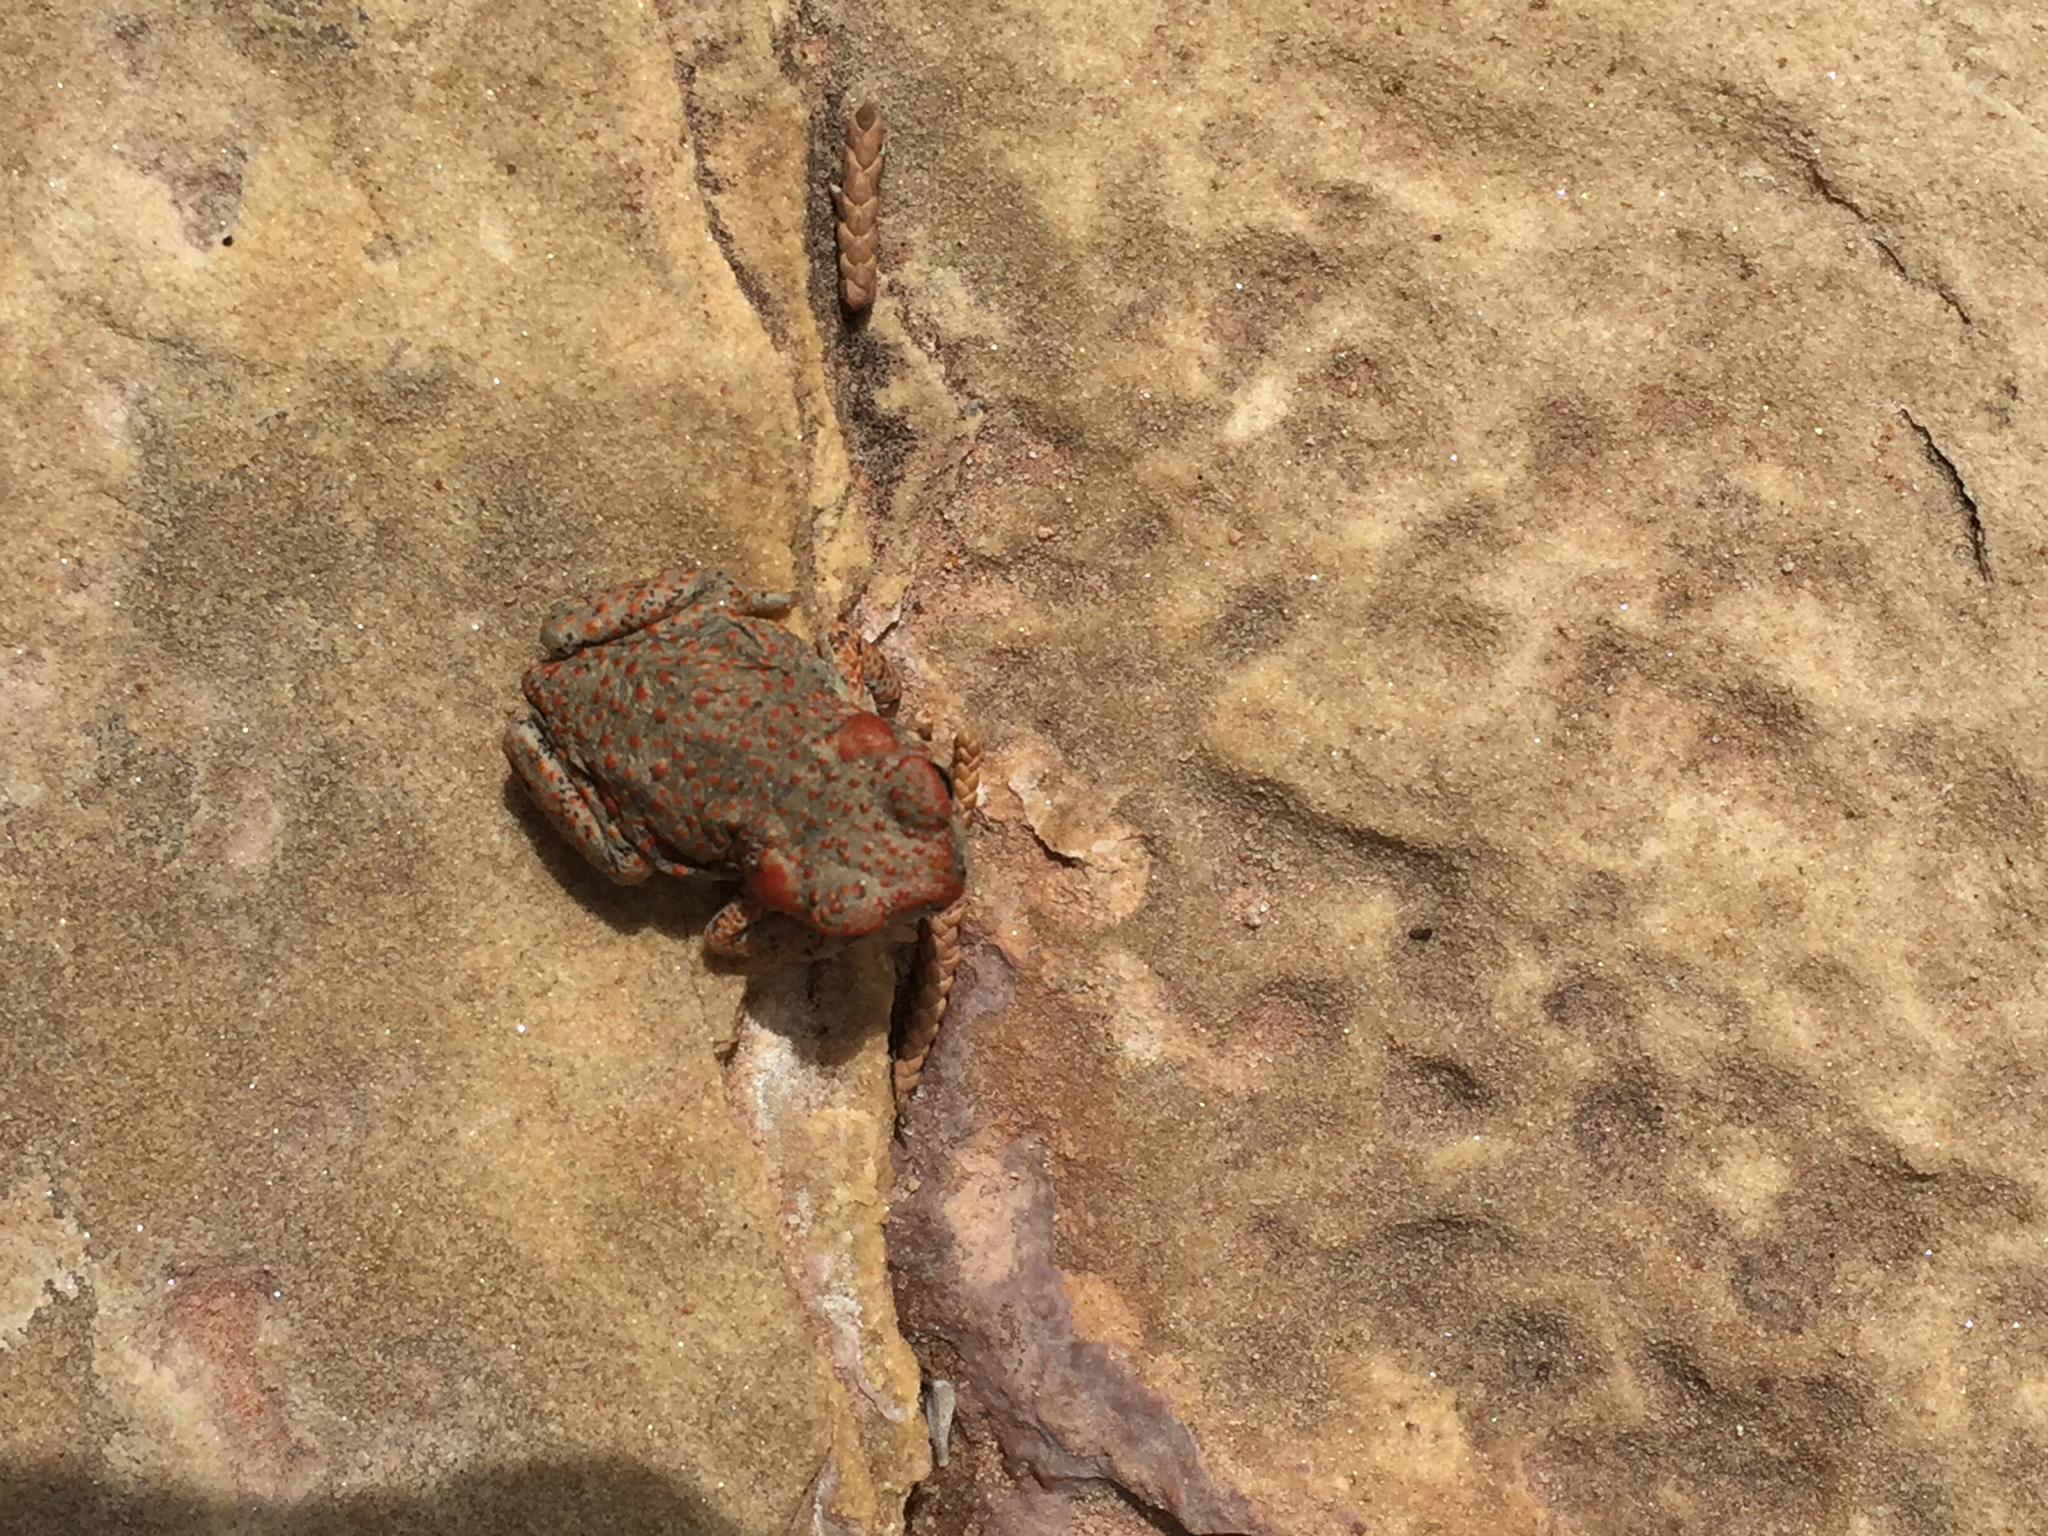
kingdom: Animalia
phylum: Chordata
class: Amphibia
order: Anura
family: Bufonidae
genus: Anaxyrus
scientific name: Anaxyrus punctatus
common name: Red-spotted toad
